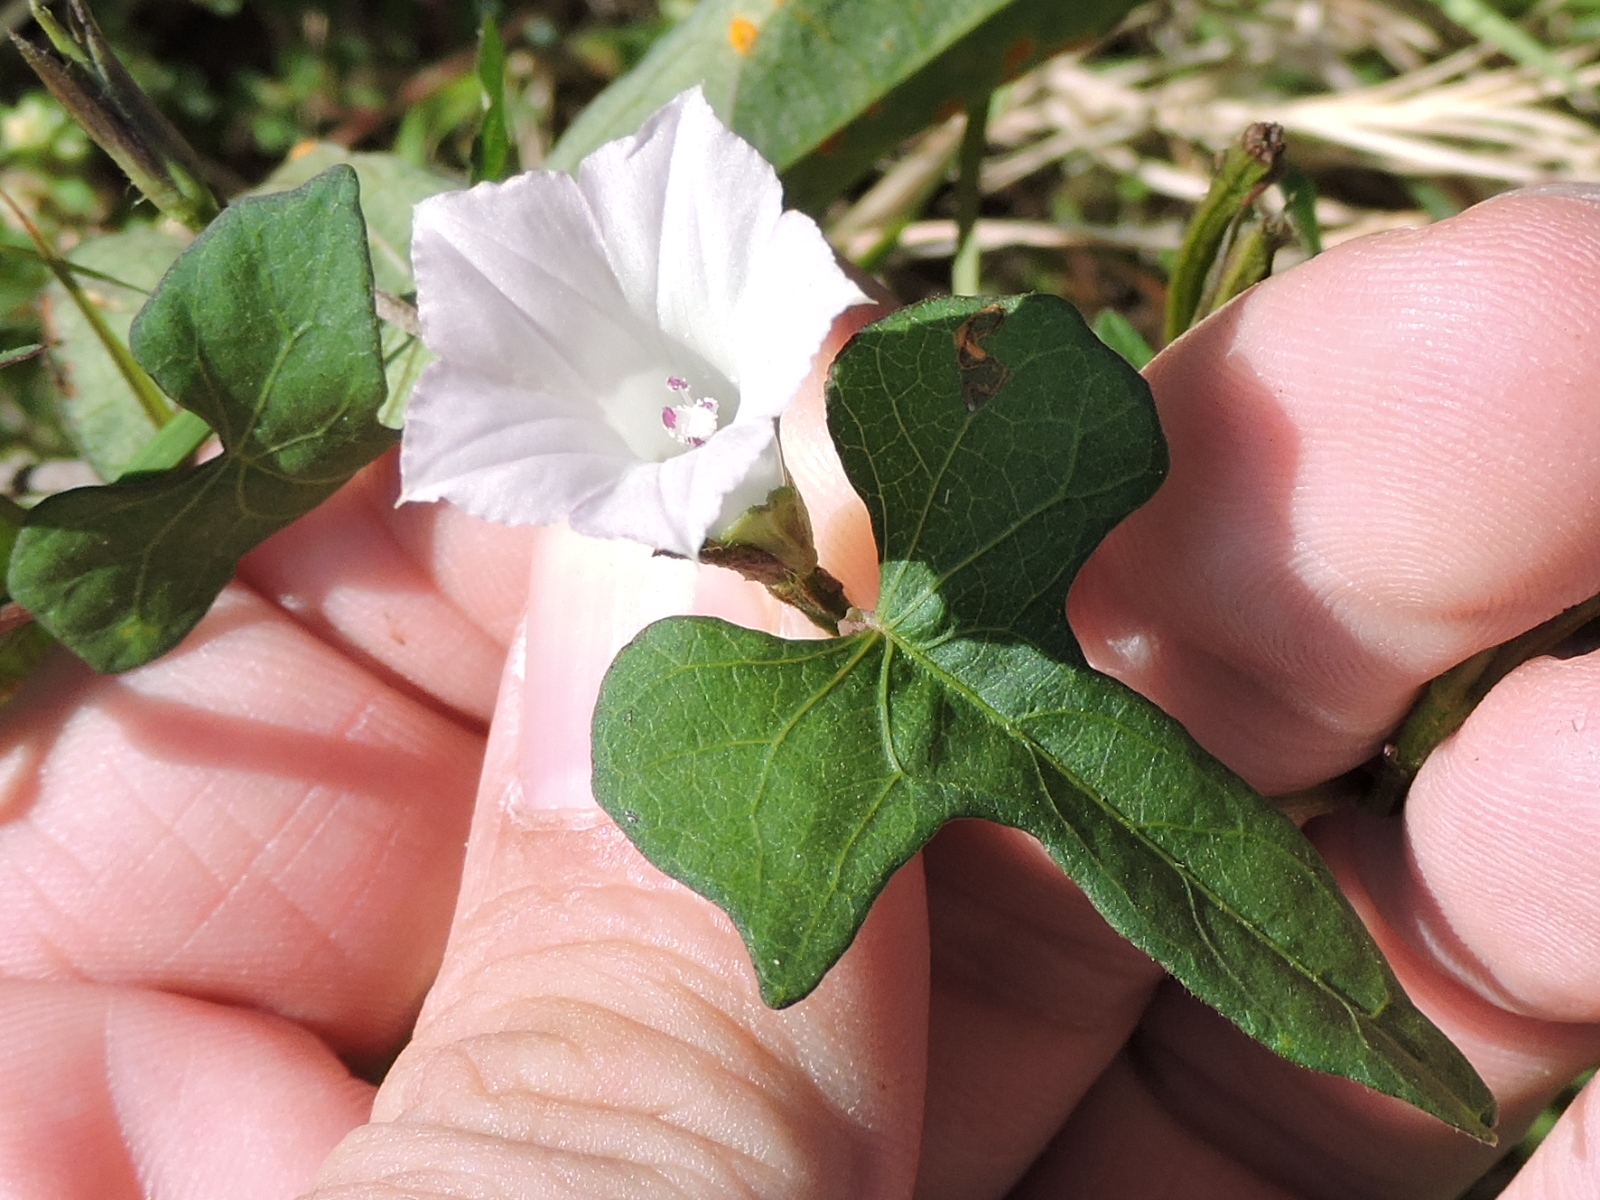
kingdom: Plantae
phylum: Tracheophyta
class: Magnoliopsida
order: Solanales
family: Convolvulaceae
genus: Ipomoea
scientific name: Ipomoea lacunosa
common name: White morning-glory
